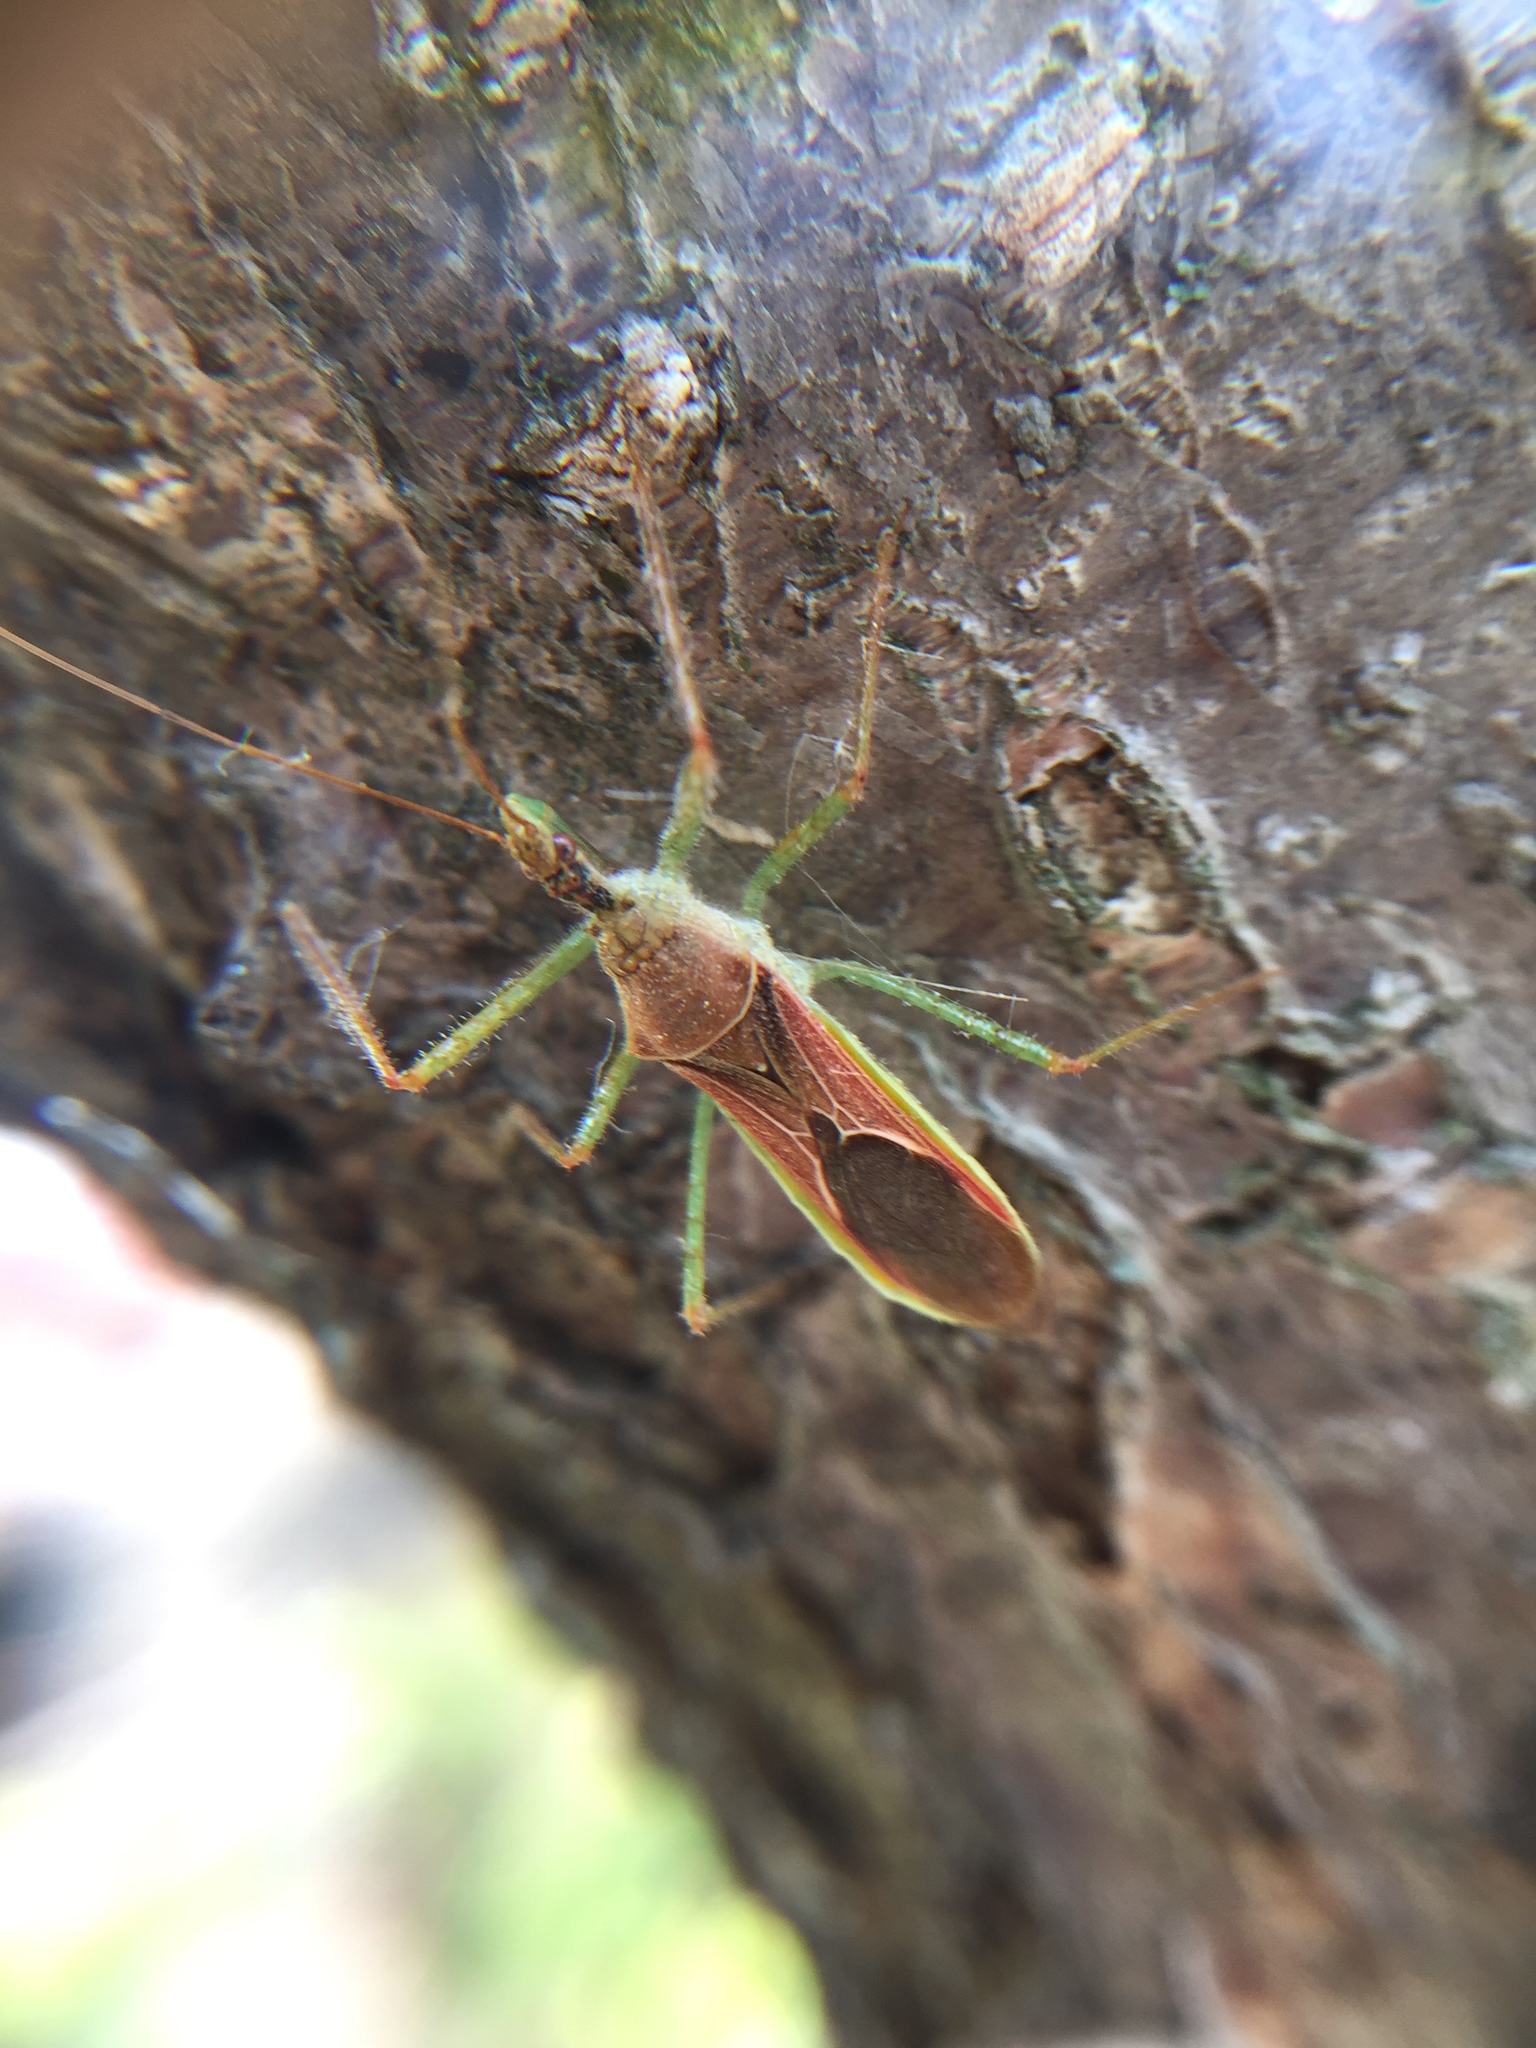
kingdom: Animalia
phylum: Arthropoda
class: Insecta
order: Hemiptera
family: Reduviidae
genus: Zelus
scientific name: Zelus renardii
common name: Assassin bug
